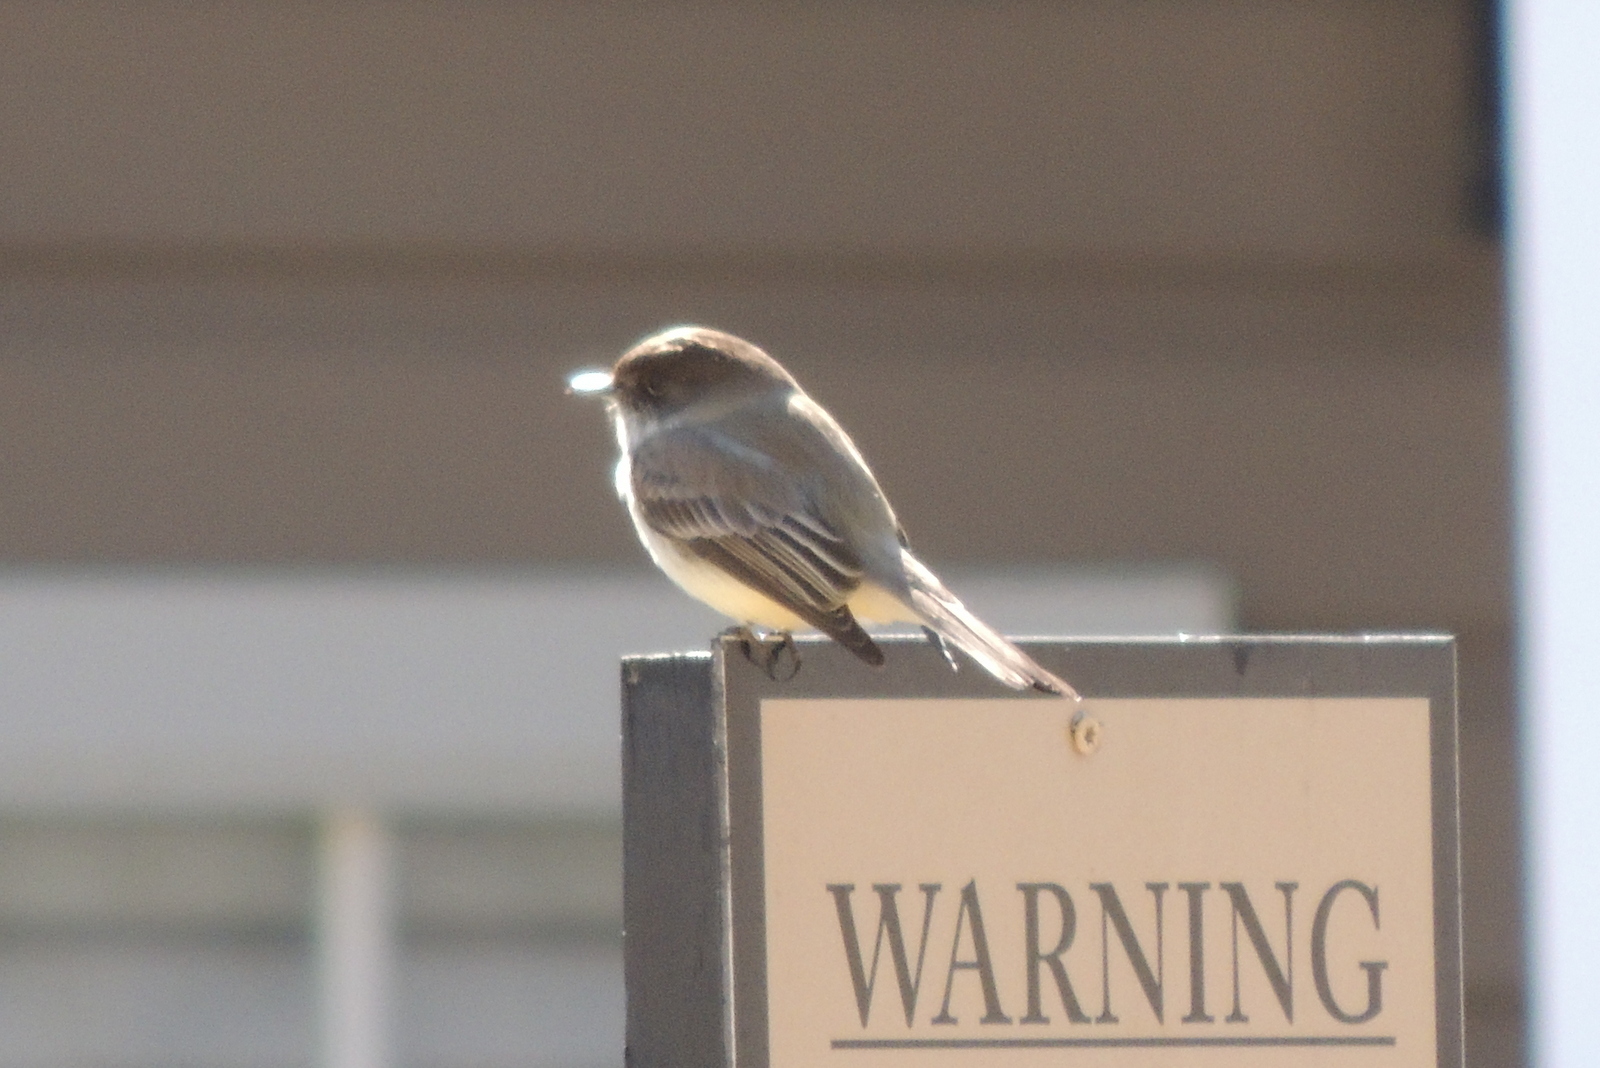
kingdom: Animalia
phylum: Chordata
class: Aves
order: Passeriformes
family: Tyrannidae
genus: Sayornis
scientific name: Sayornis phoebe
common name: Eastern phoebe
